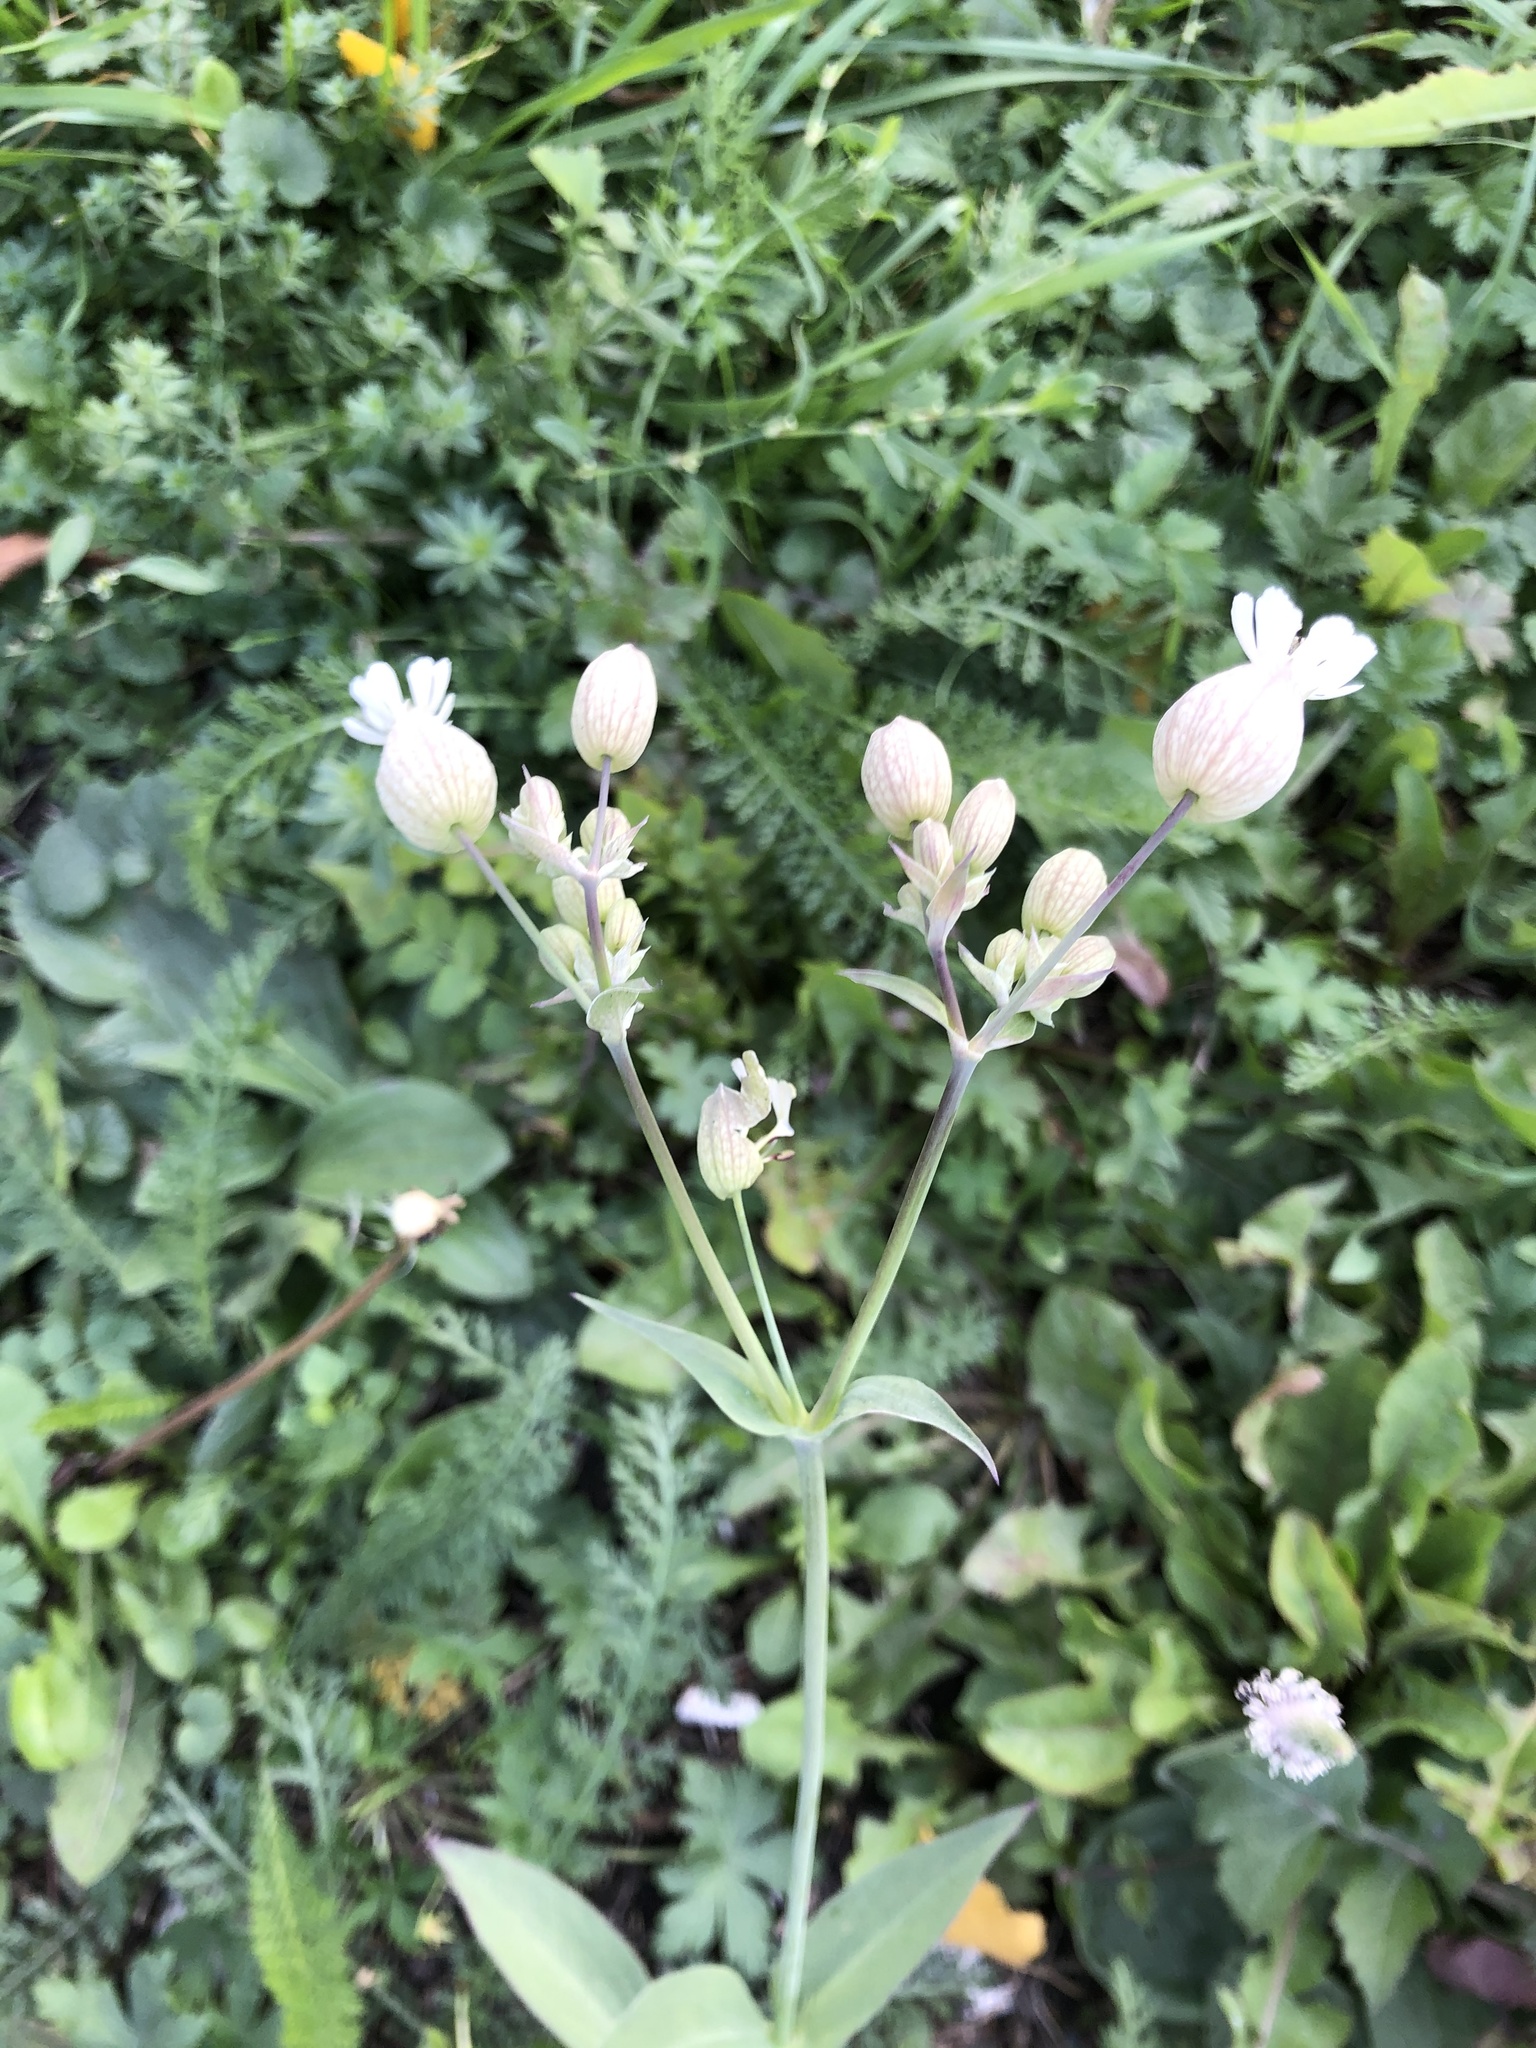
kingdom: Plantae
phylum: Tracheophyta
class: Magnoliopsida
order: Caryophyllales
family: Caryophyllaceae
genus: Silene
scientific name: Silene vulgaris
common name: Bladder campion
